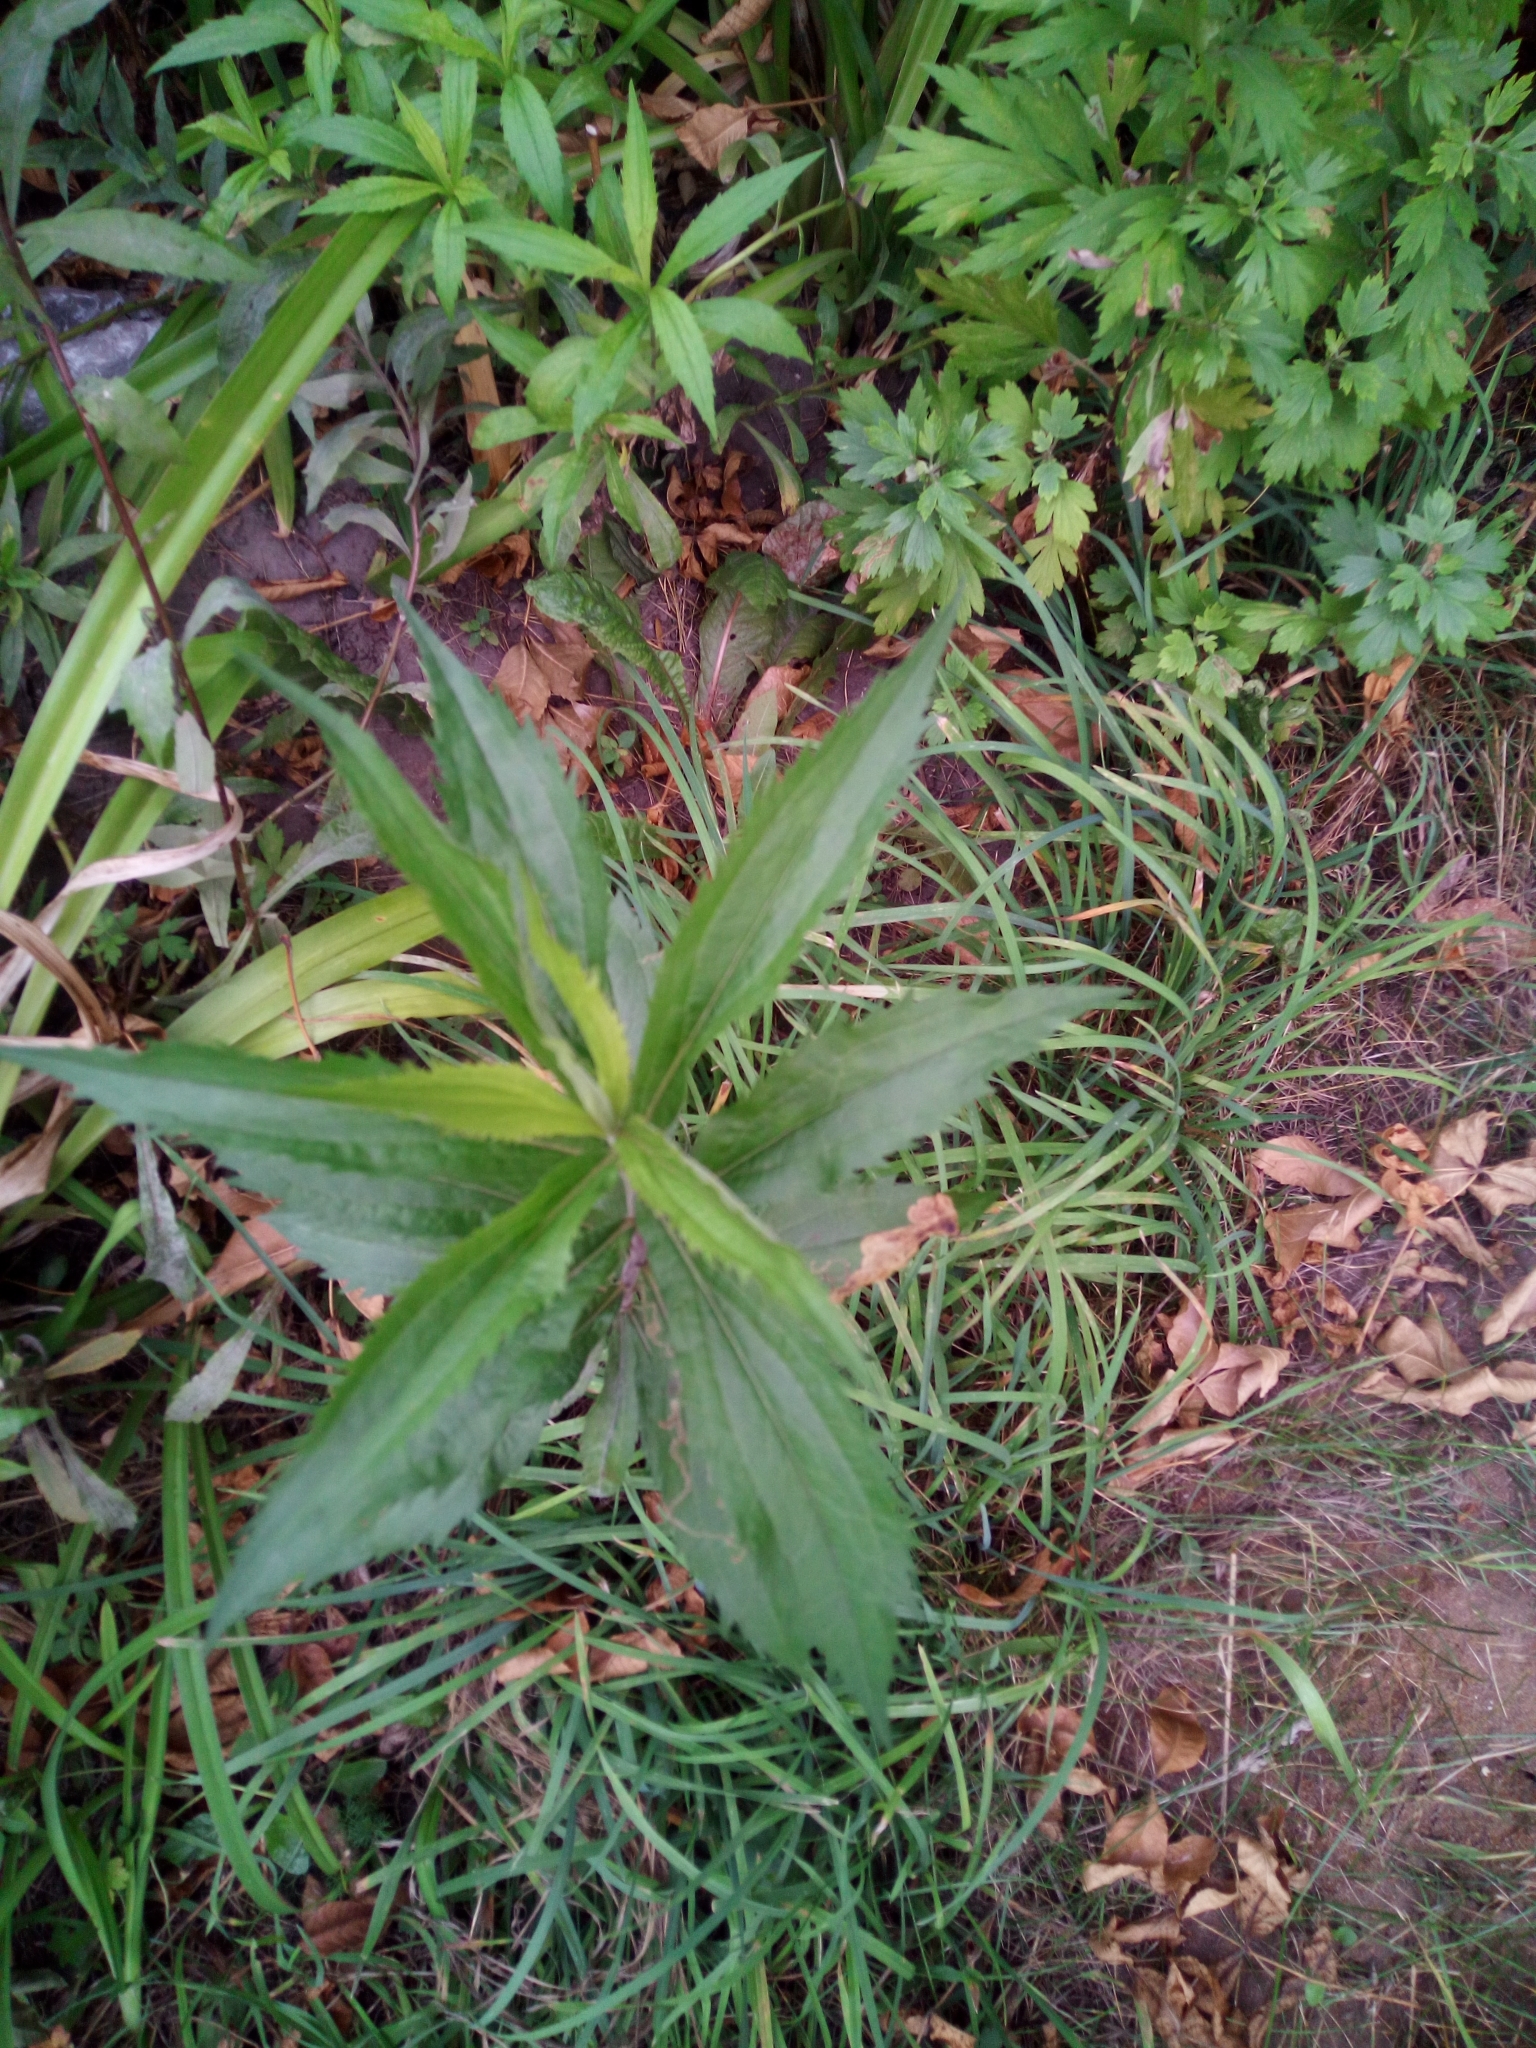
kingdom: Plantae
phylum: Tracheophyta
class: Magnoliopsida
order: Asterales
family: Asteraceae
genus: Solidago
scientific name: Solidago canadensis
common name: Canada goldenrod
